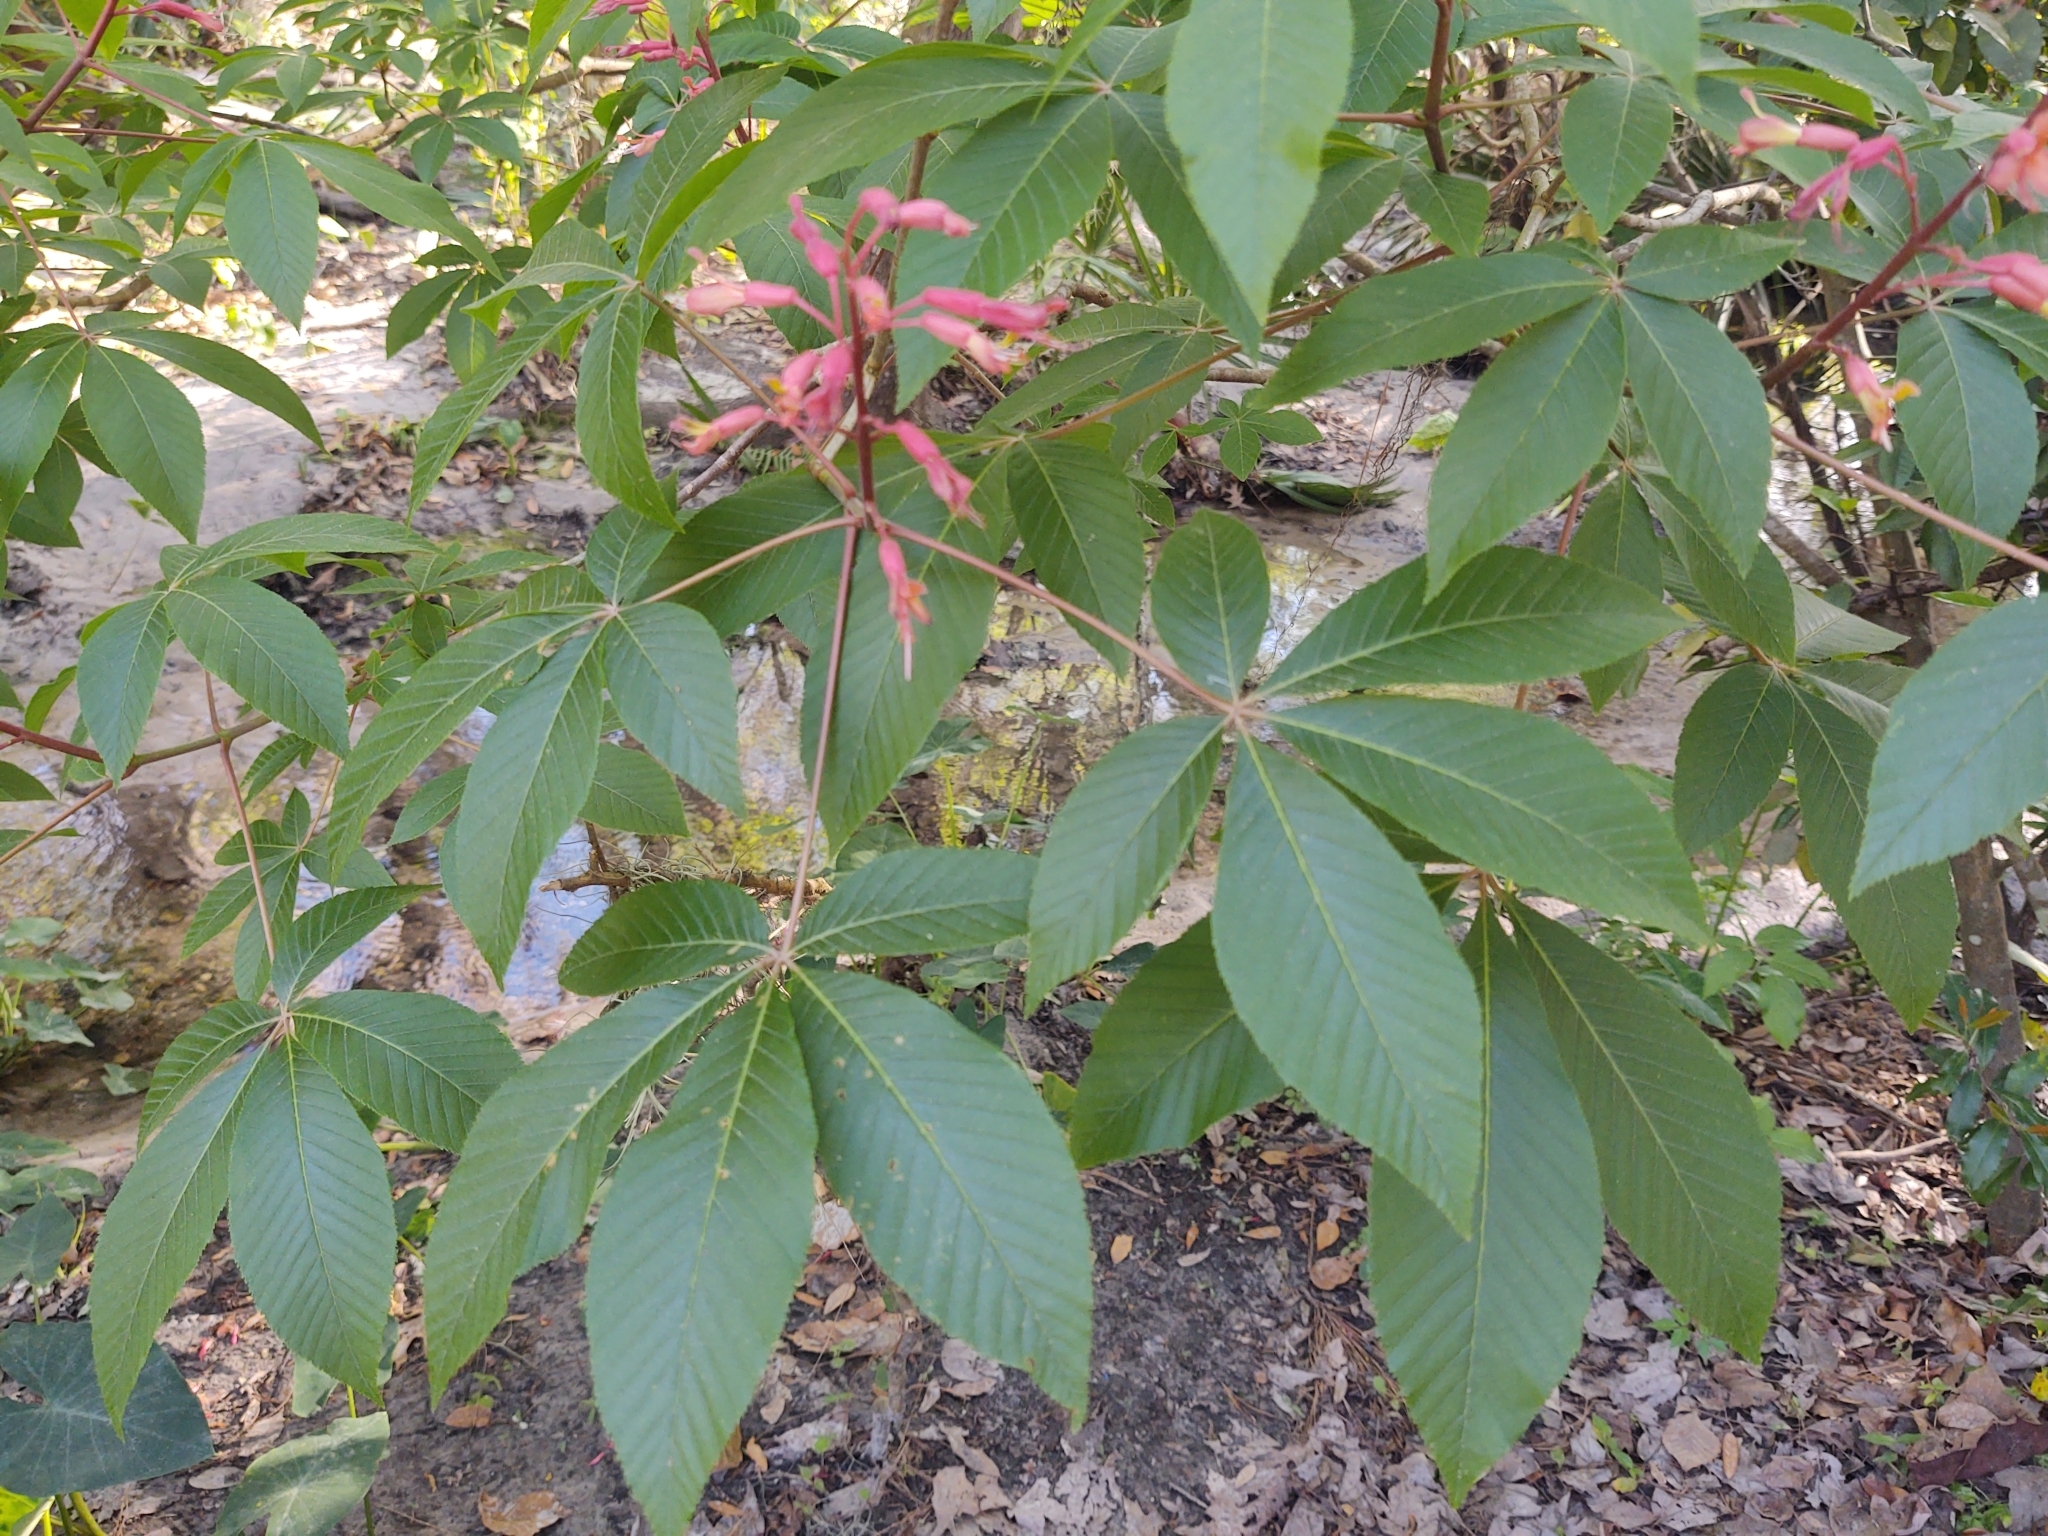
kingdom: Plantae
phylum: Tracheophyta
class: Magnoliopsida
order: Sapindales
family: Sapindaceae
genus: Aesculus
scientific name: Aesculus pavia
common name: Red buckeye
